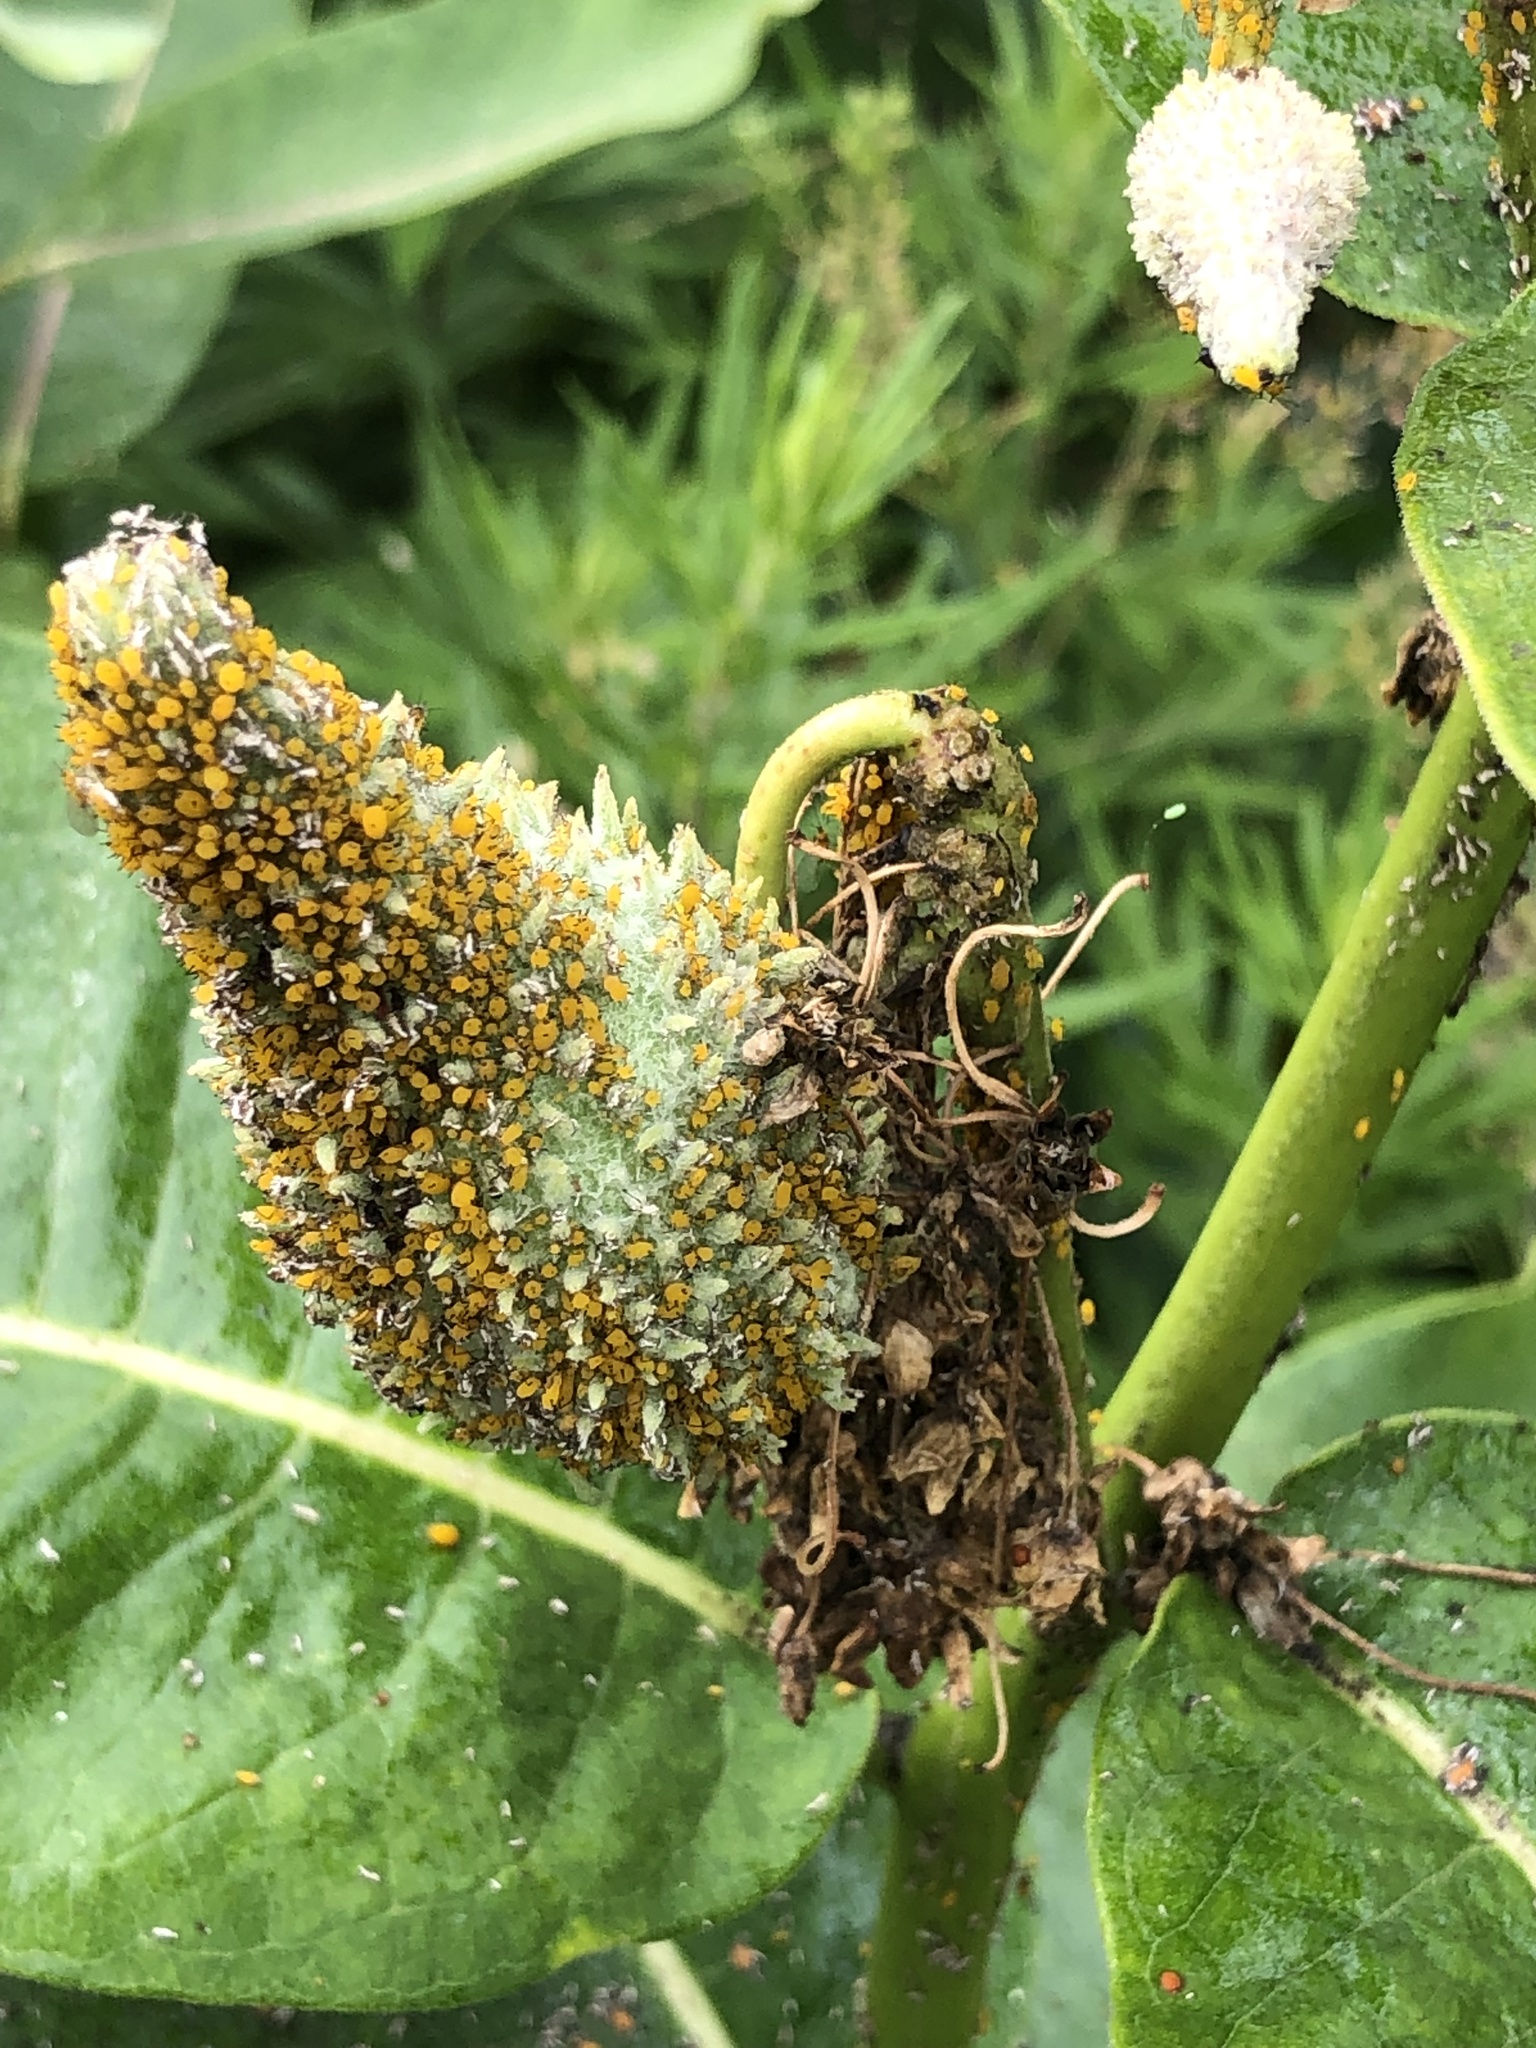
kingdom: Animalia
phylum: Arthropoda
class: Insecta
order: Hemiptera
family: Aphididae
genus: Aphis
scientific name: Aphis nerii
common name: Oleander aphid
